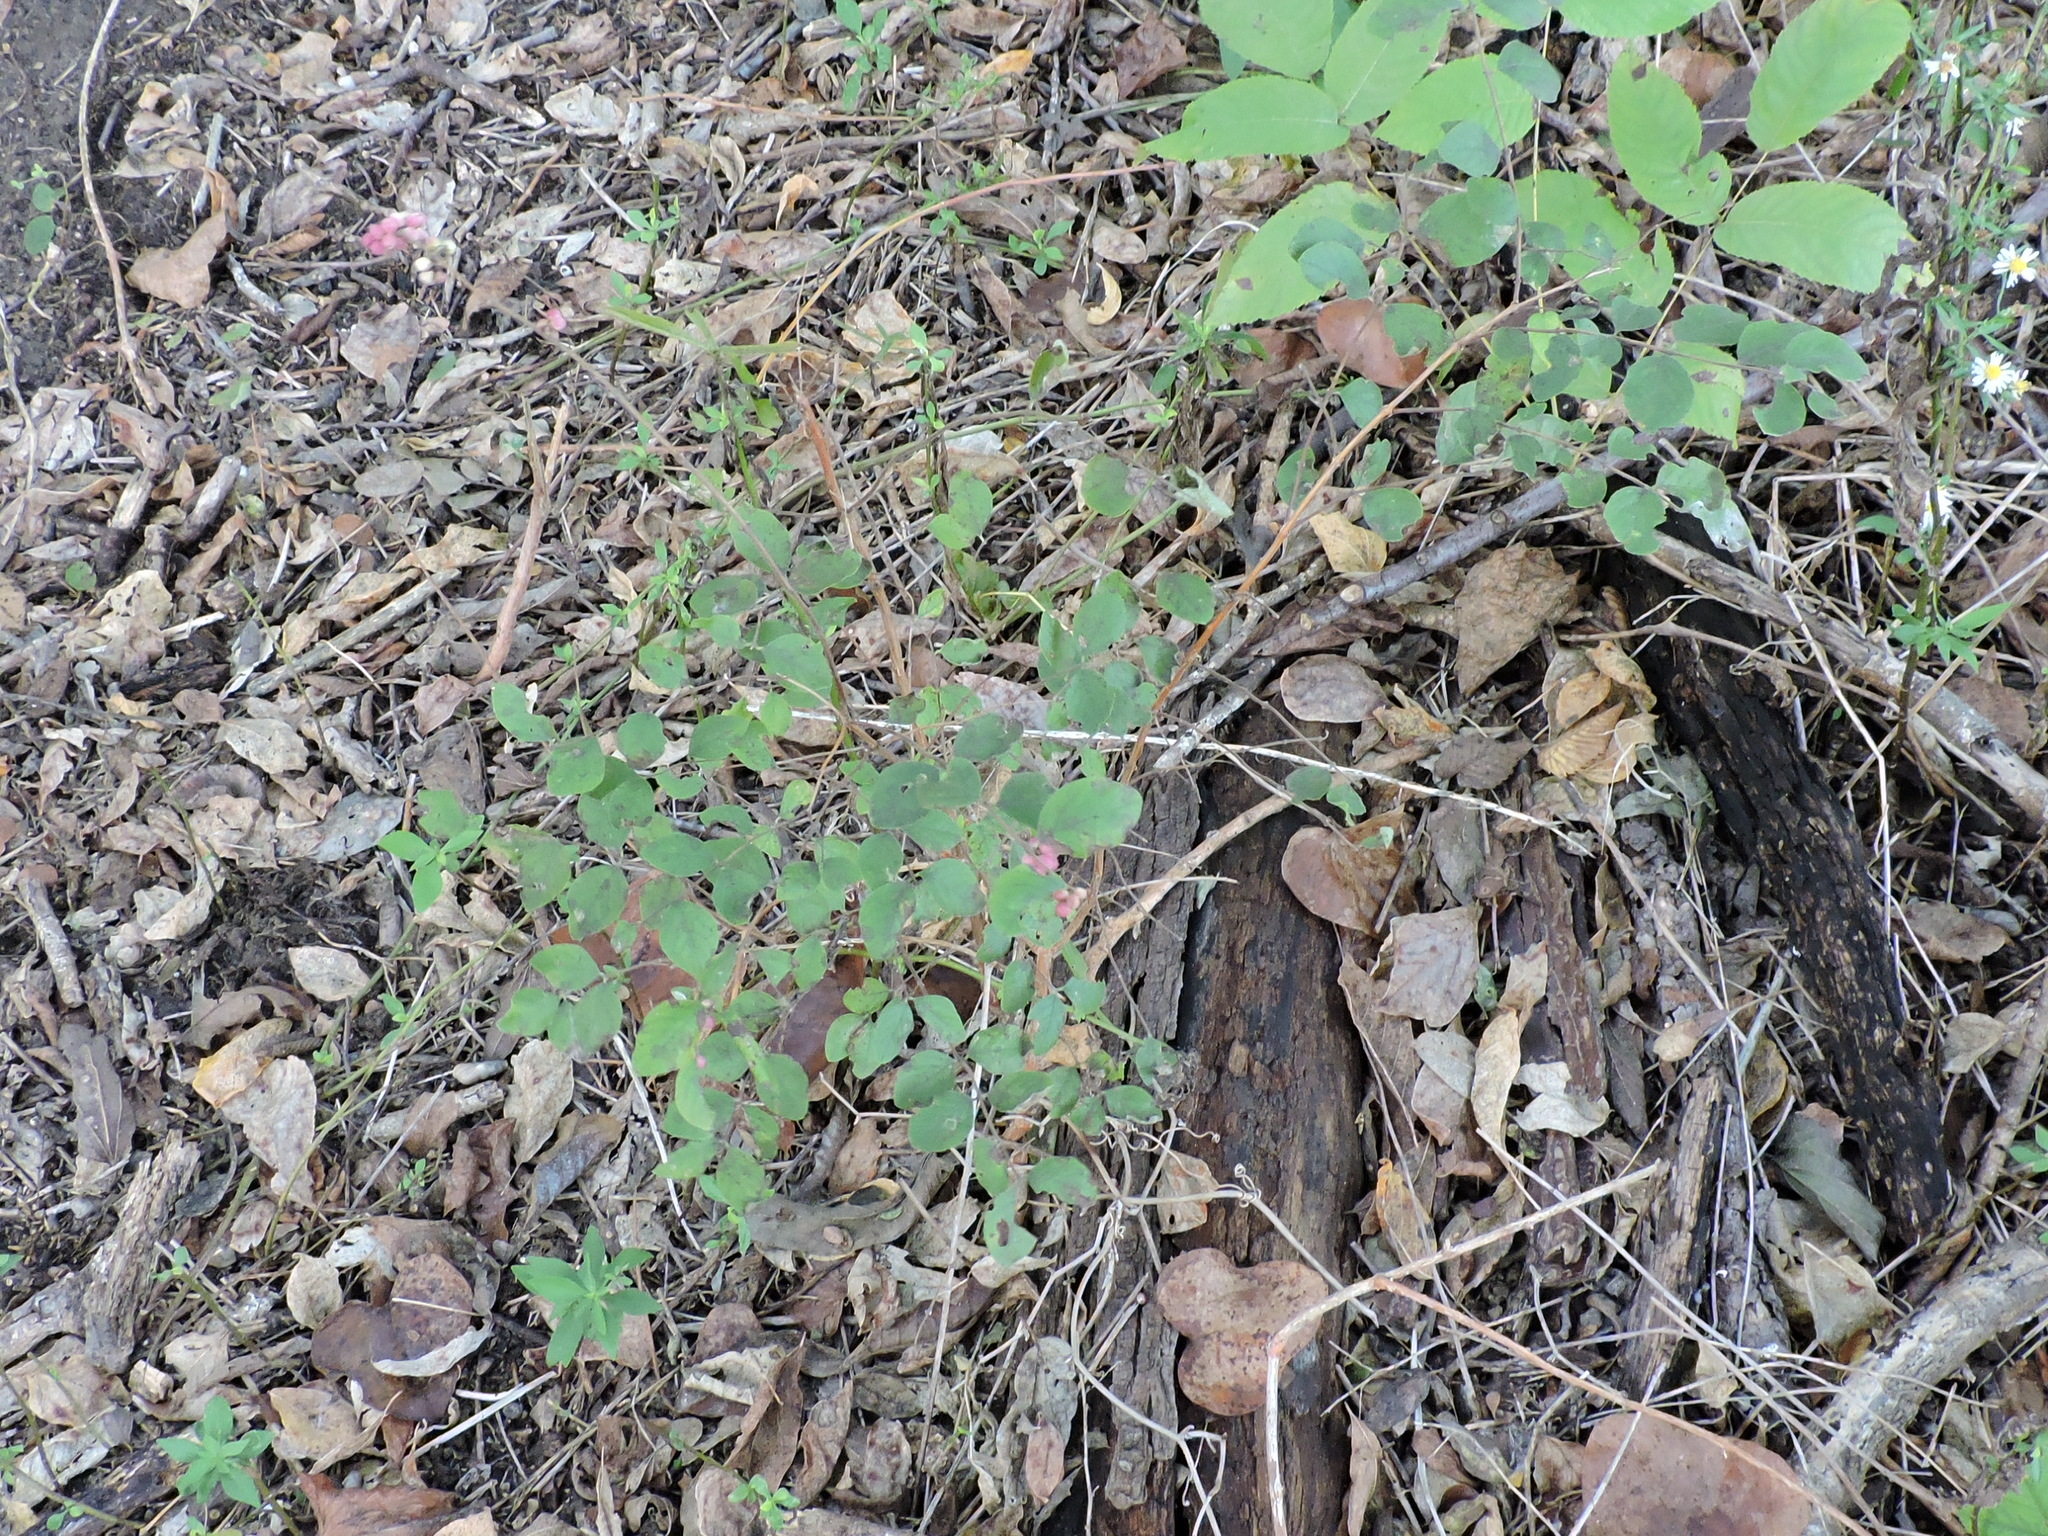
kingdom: Plantae
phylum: Tracheophyta
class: Magnoliopsida
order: Dipsacales
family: Caprifoliaceae
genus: Symphoricarpos
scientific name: Symphoricarpos orbiculatus
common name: Coralberry
